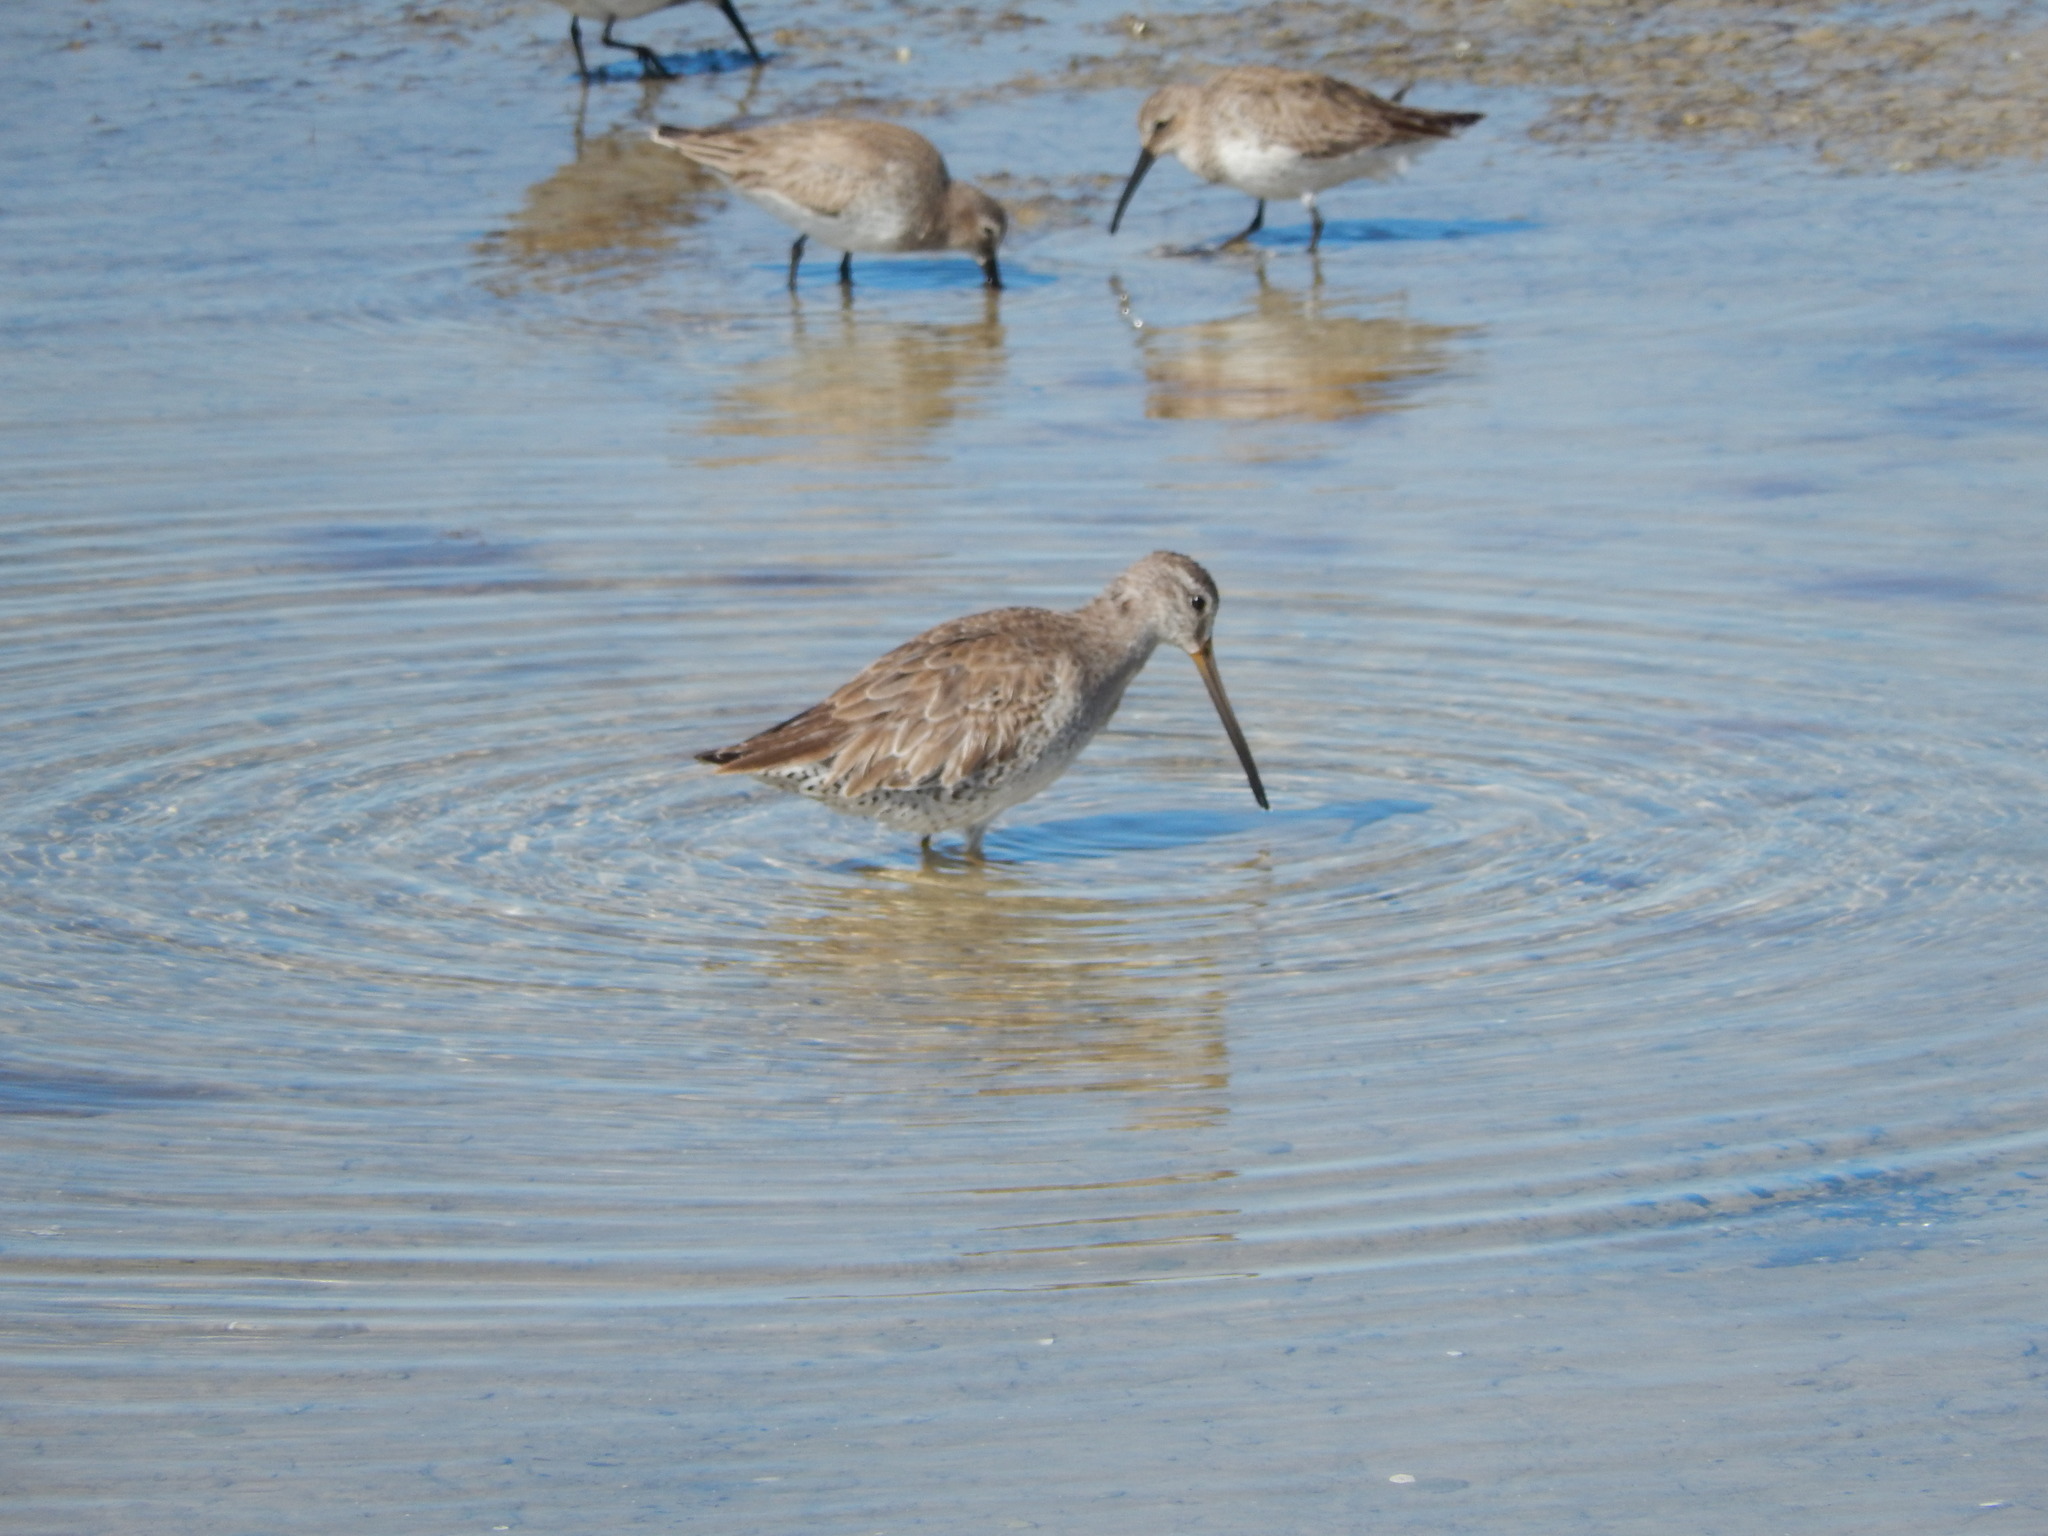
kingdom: Animalia
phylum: Chordata
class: Aves
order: Charadriiformes
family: Scolopacidae
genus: Limnodromus
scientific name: Limnodromus
